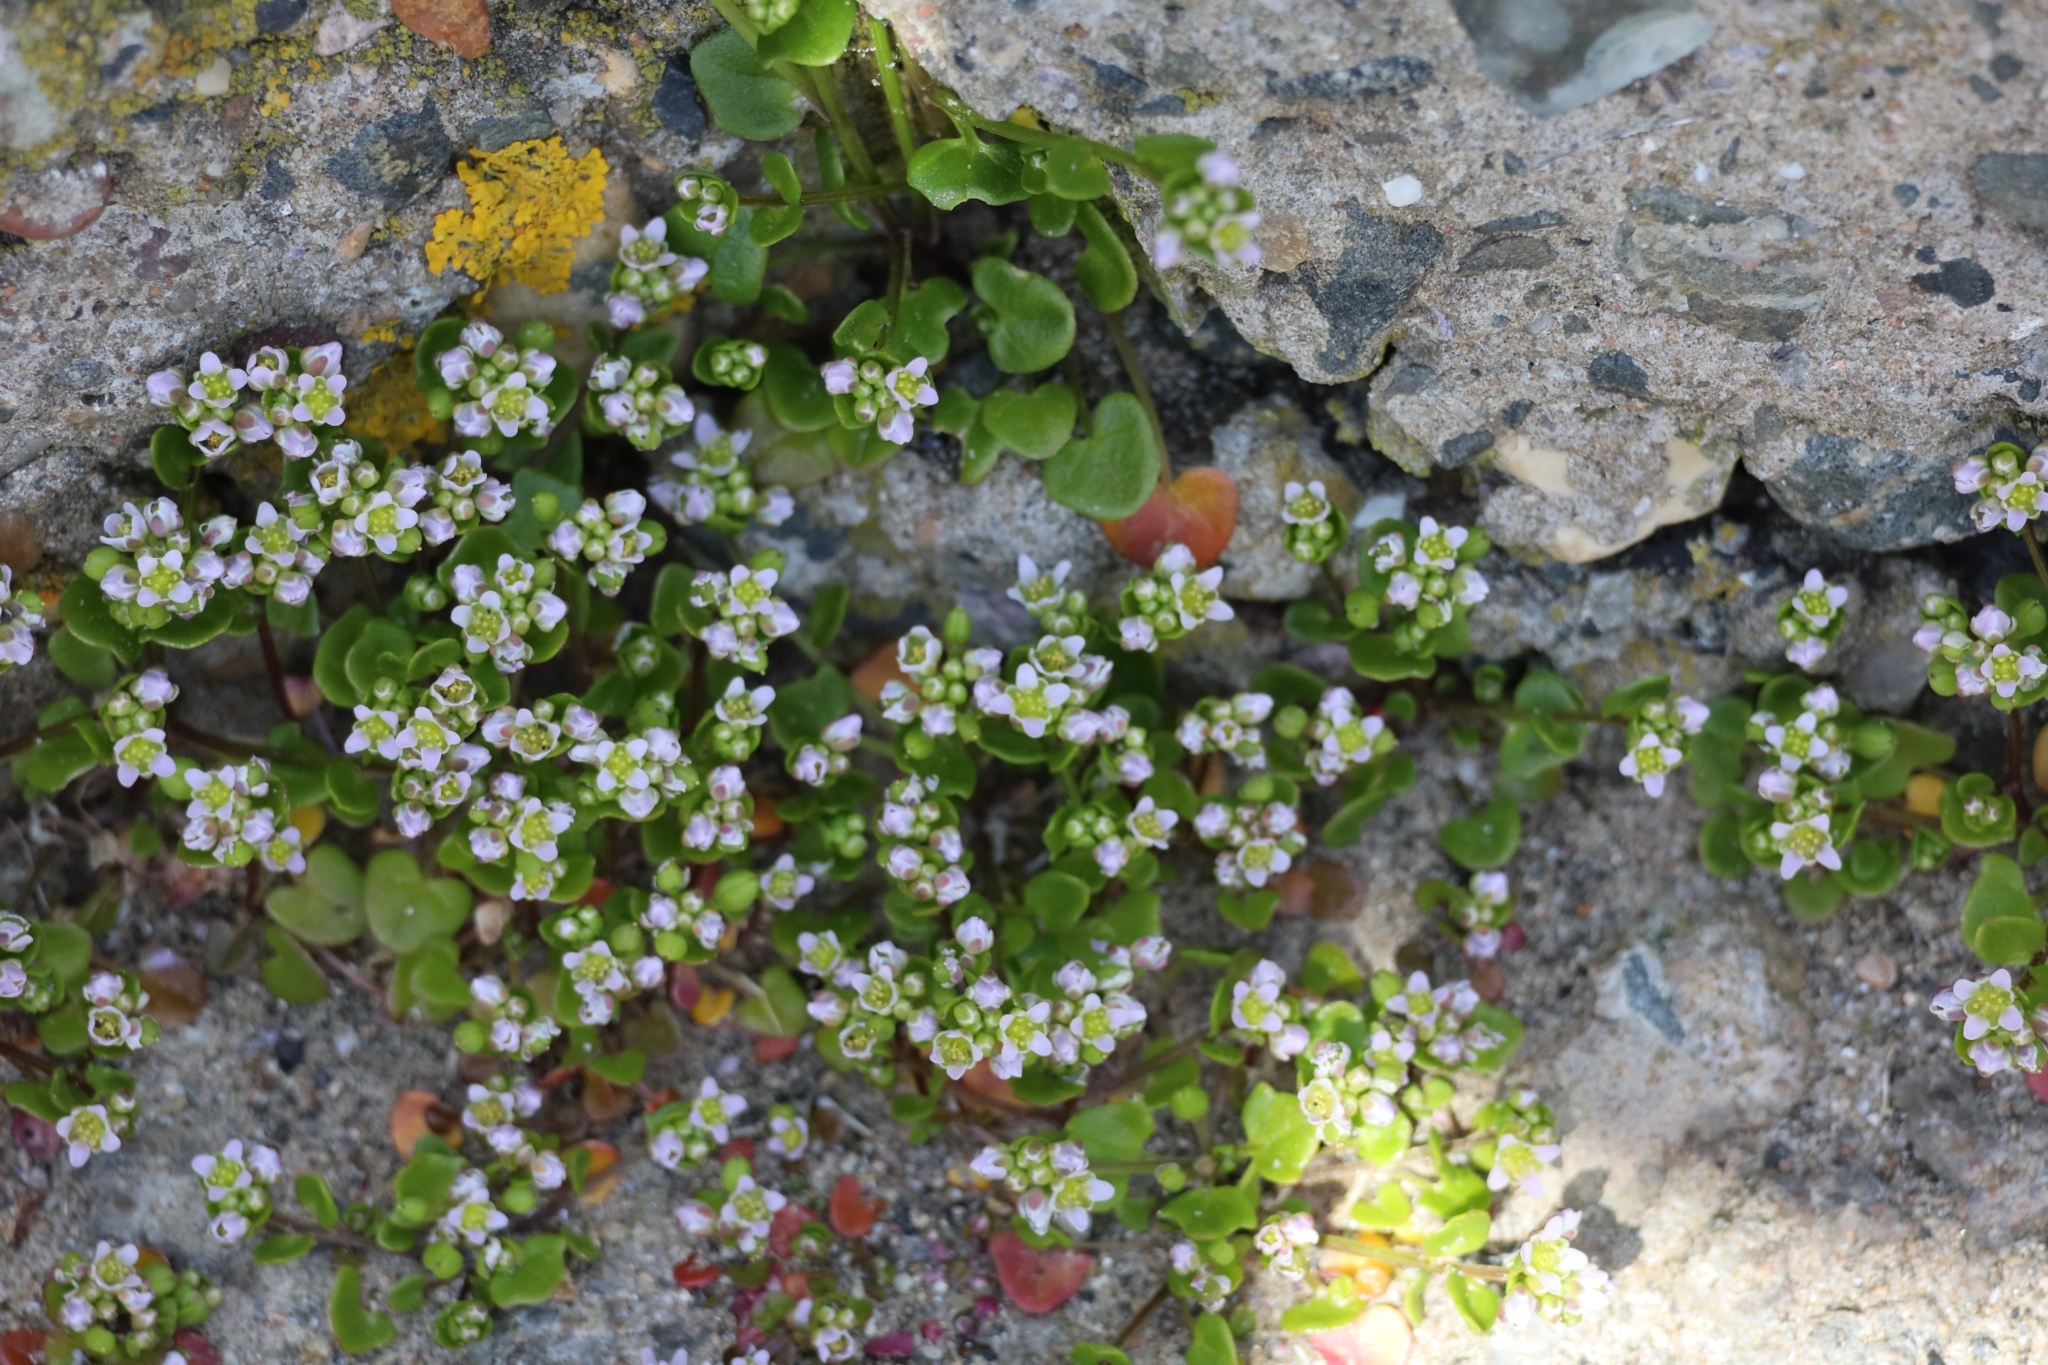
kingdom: Plantae
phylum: Tracheophyta
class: Magnoliopsida
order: Brassicales
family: Brassicaceae
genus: Cochlearia
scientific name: Cochlearia danica
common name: Early scurvygrass
